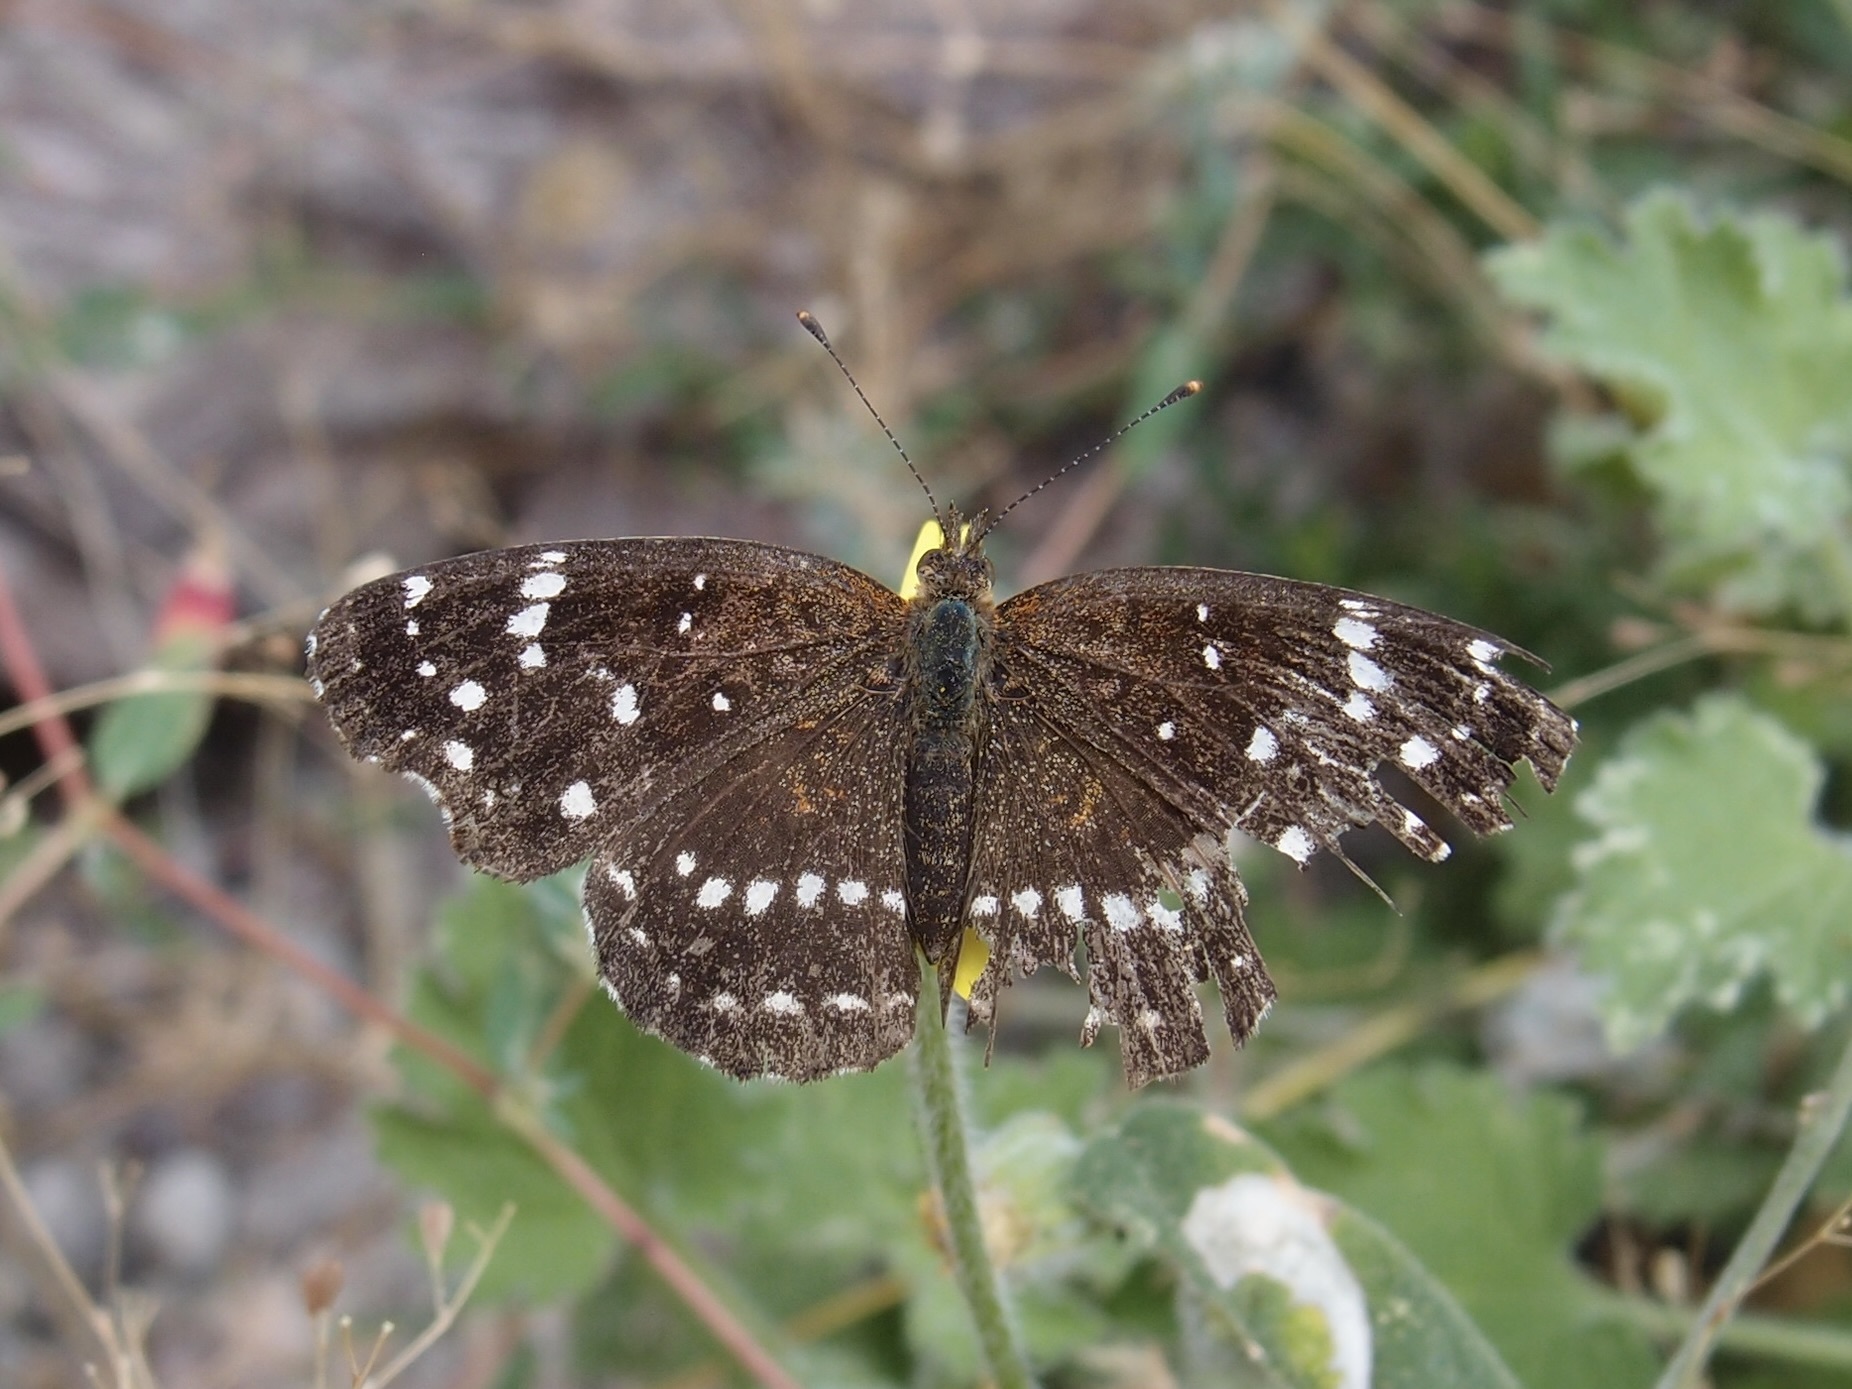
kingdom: Animalia
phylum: Arthropoda
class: Insecta
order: Lepidoptera
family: Nymphalidae
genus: Anthanassa
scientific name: Anthanassa texana
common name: Texan crescent
